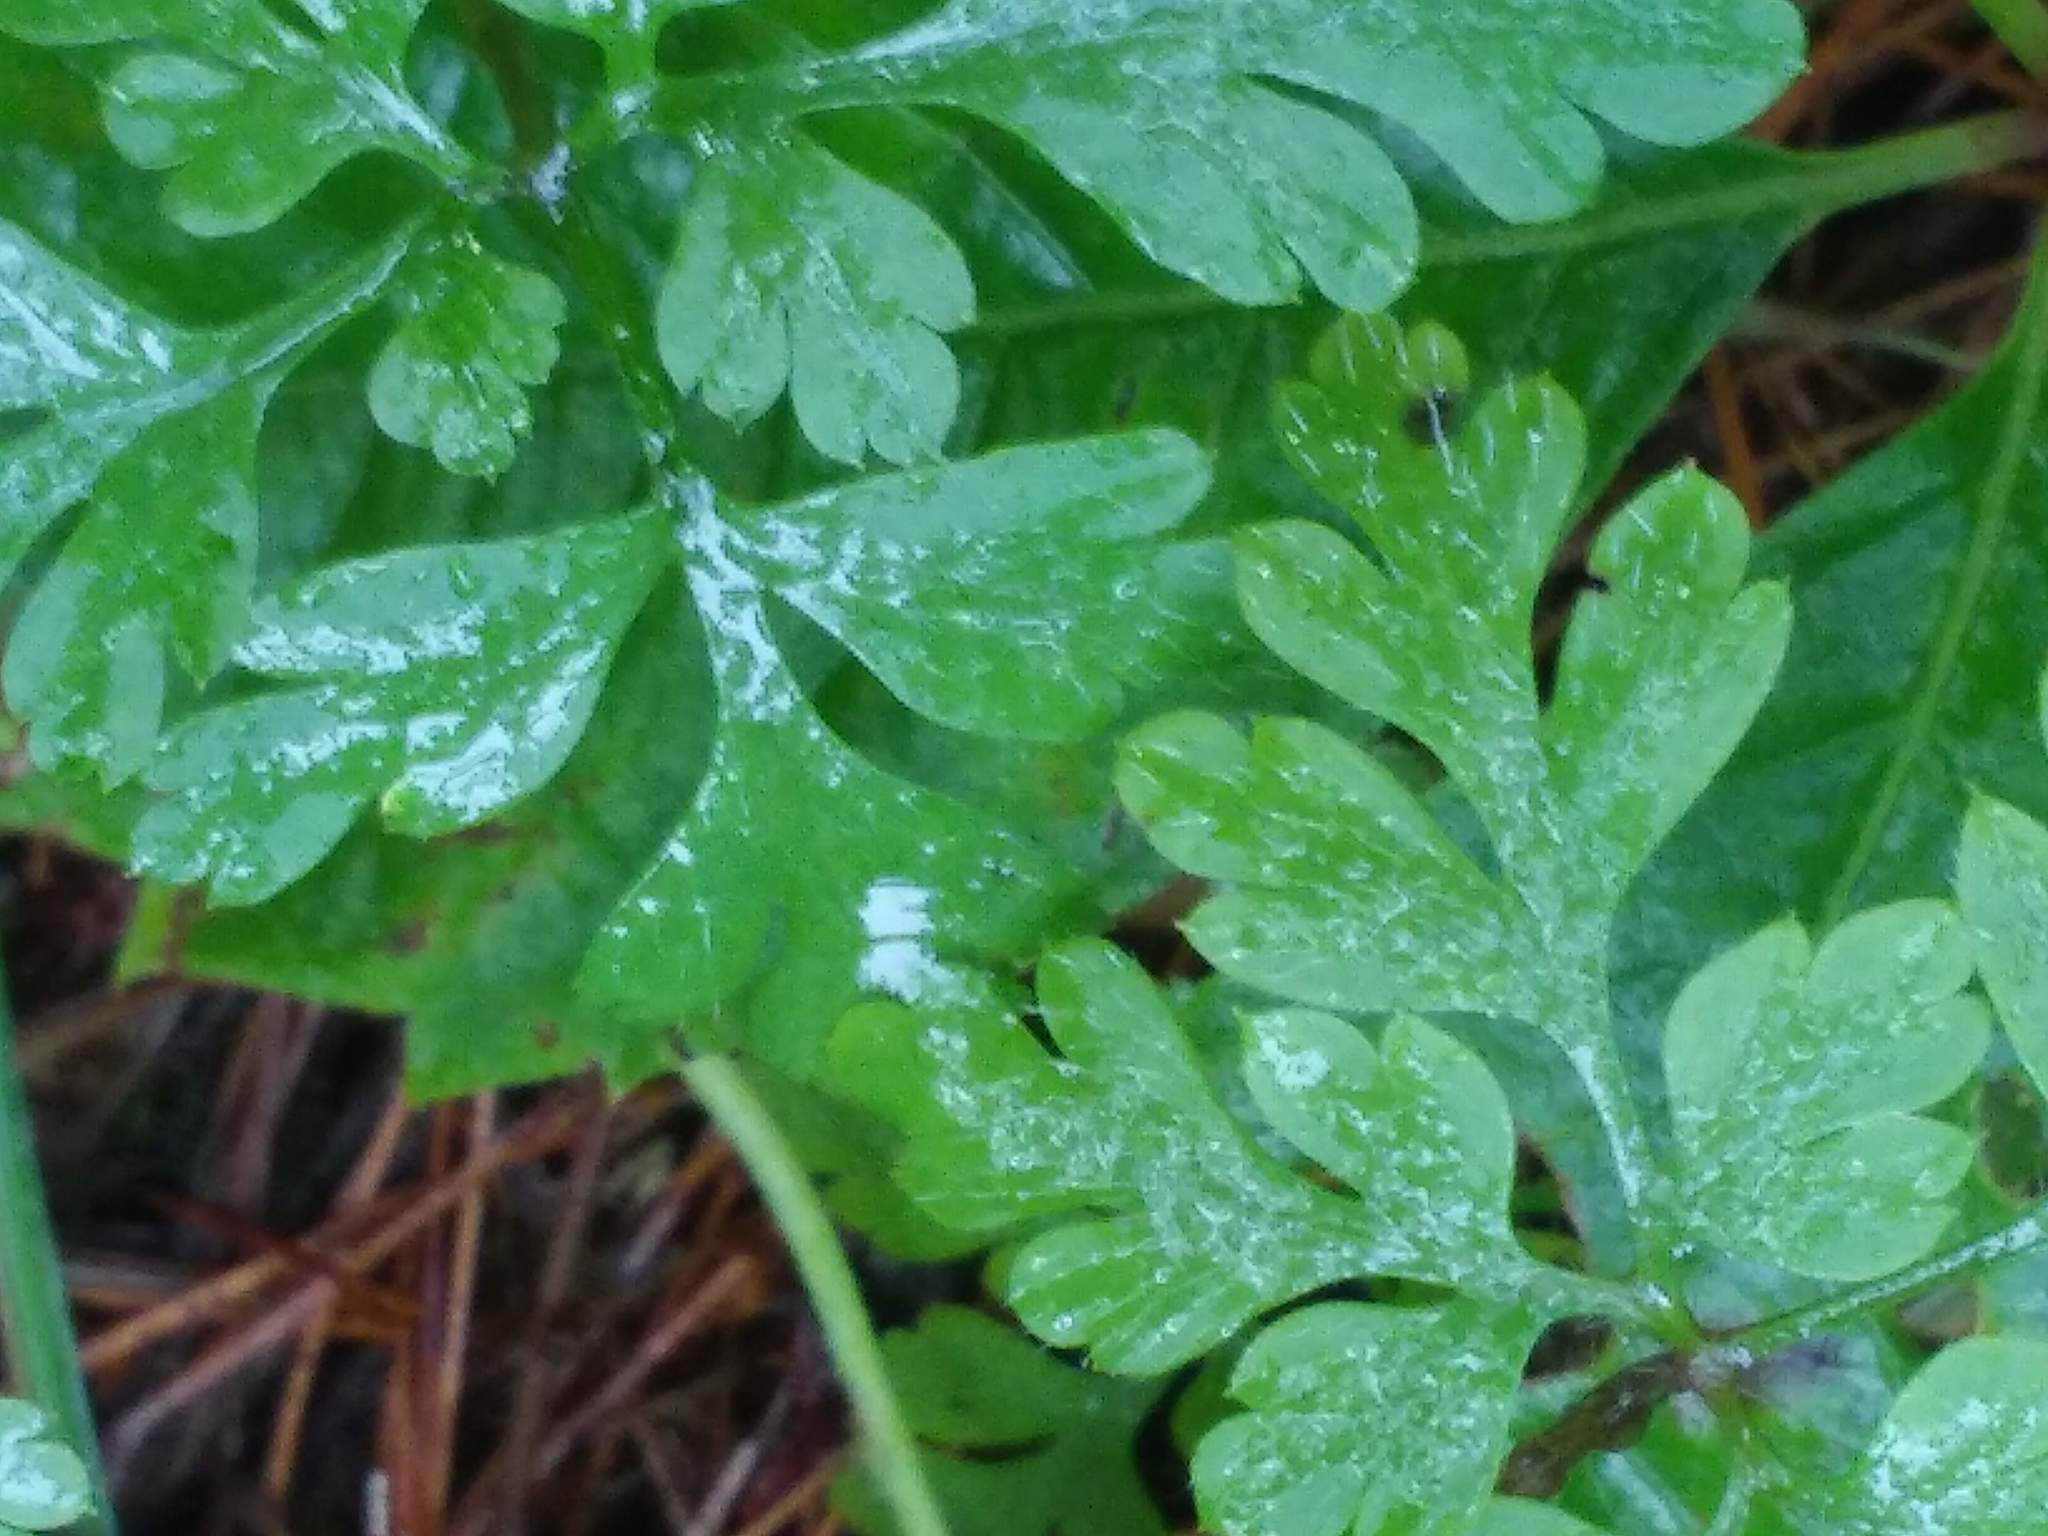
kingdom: Plantae
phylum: Tracheophyta
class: Magnoliopsida
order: Geraniales
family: Geraniaceae
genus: Geranium
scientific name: Geranium robertianum
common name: Herb-robert
